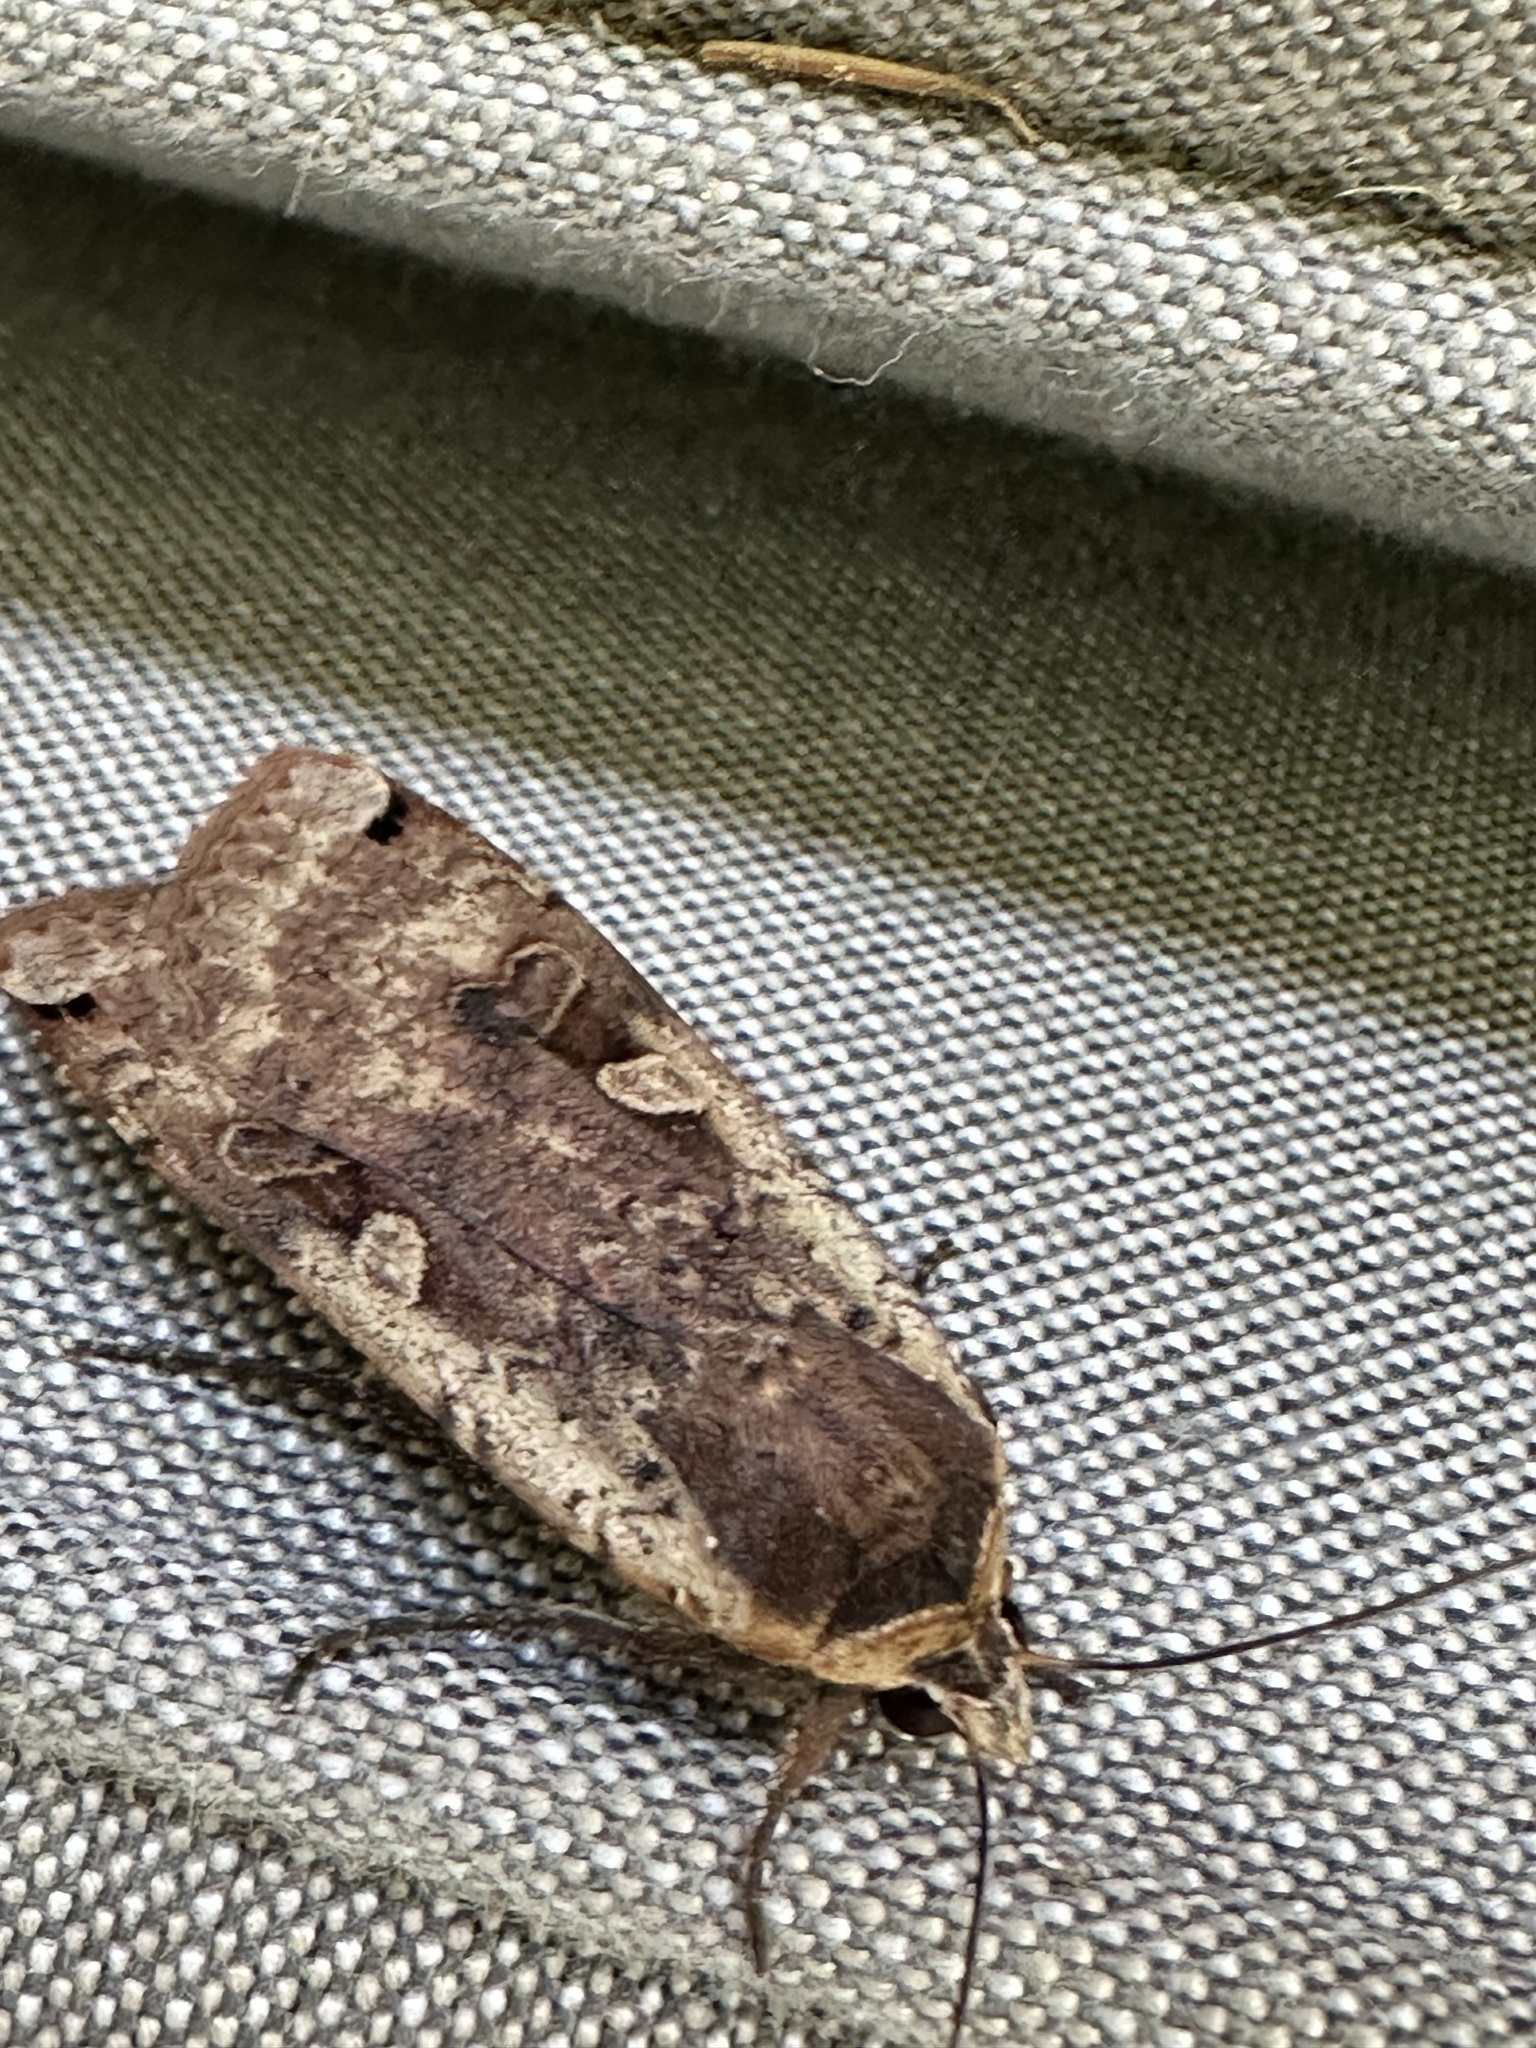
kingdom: Animalia
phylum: Arthropoda
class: Insecta
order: Lepidoptera
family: Noctuidae
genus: Noctua
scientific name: Noctua pronuba
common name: Large yellow underwing
